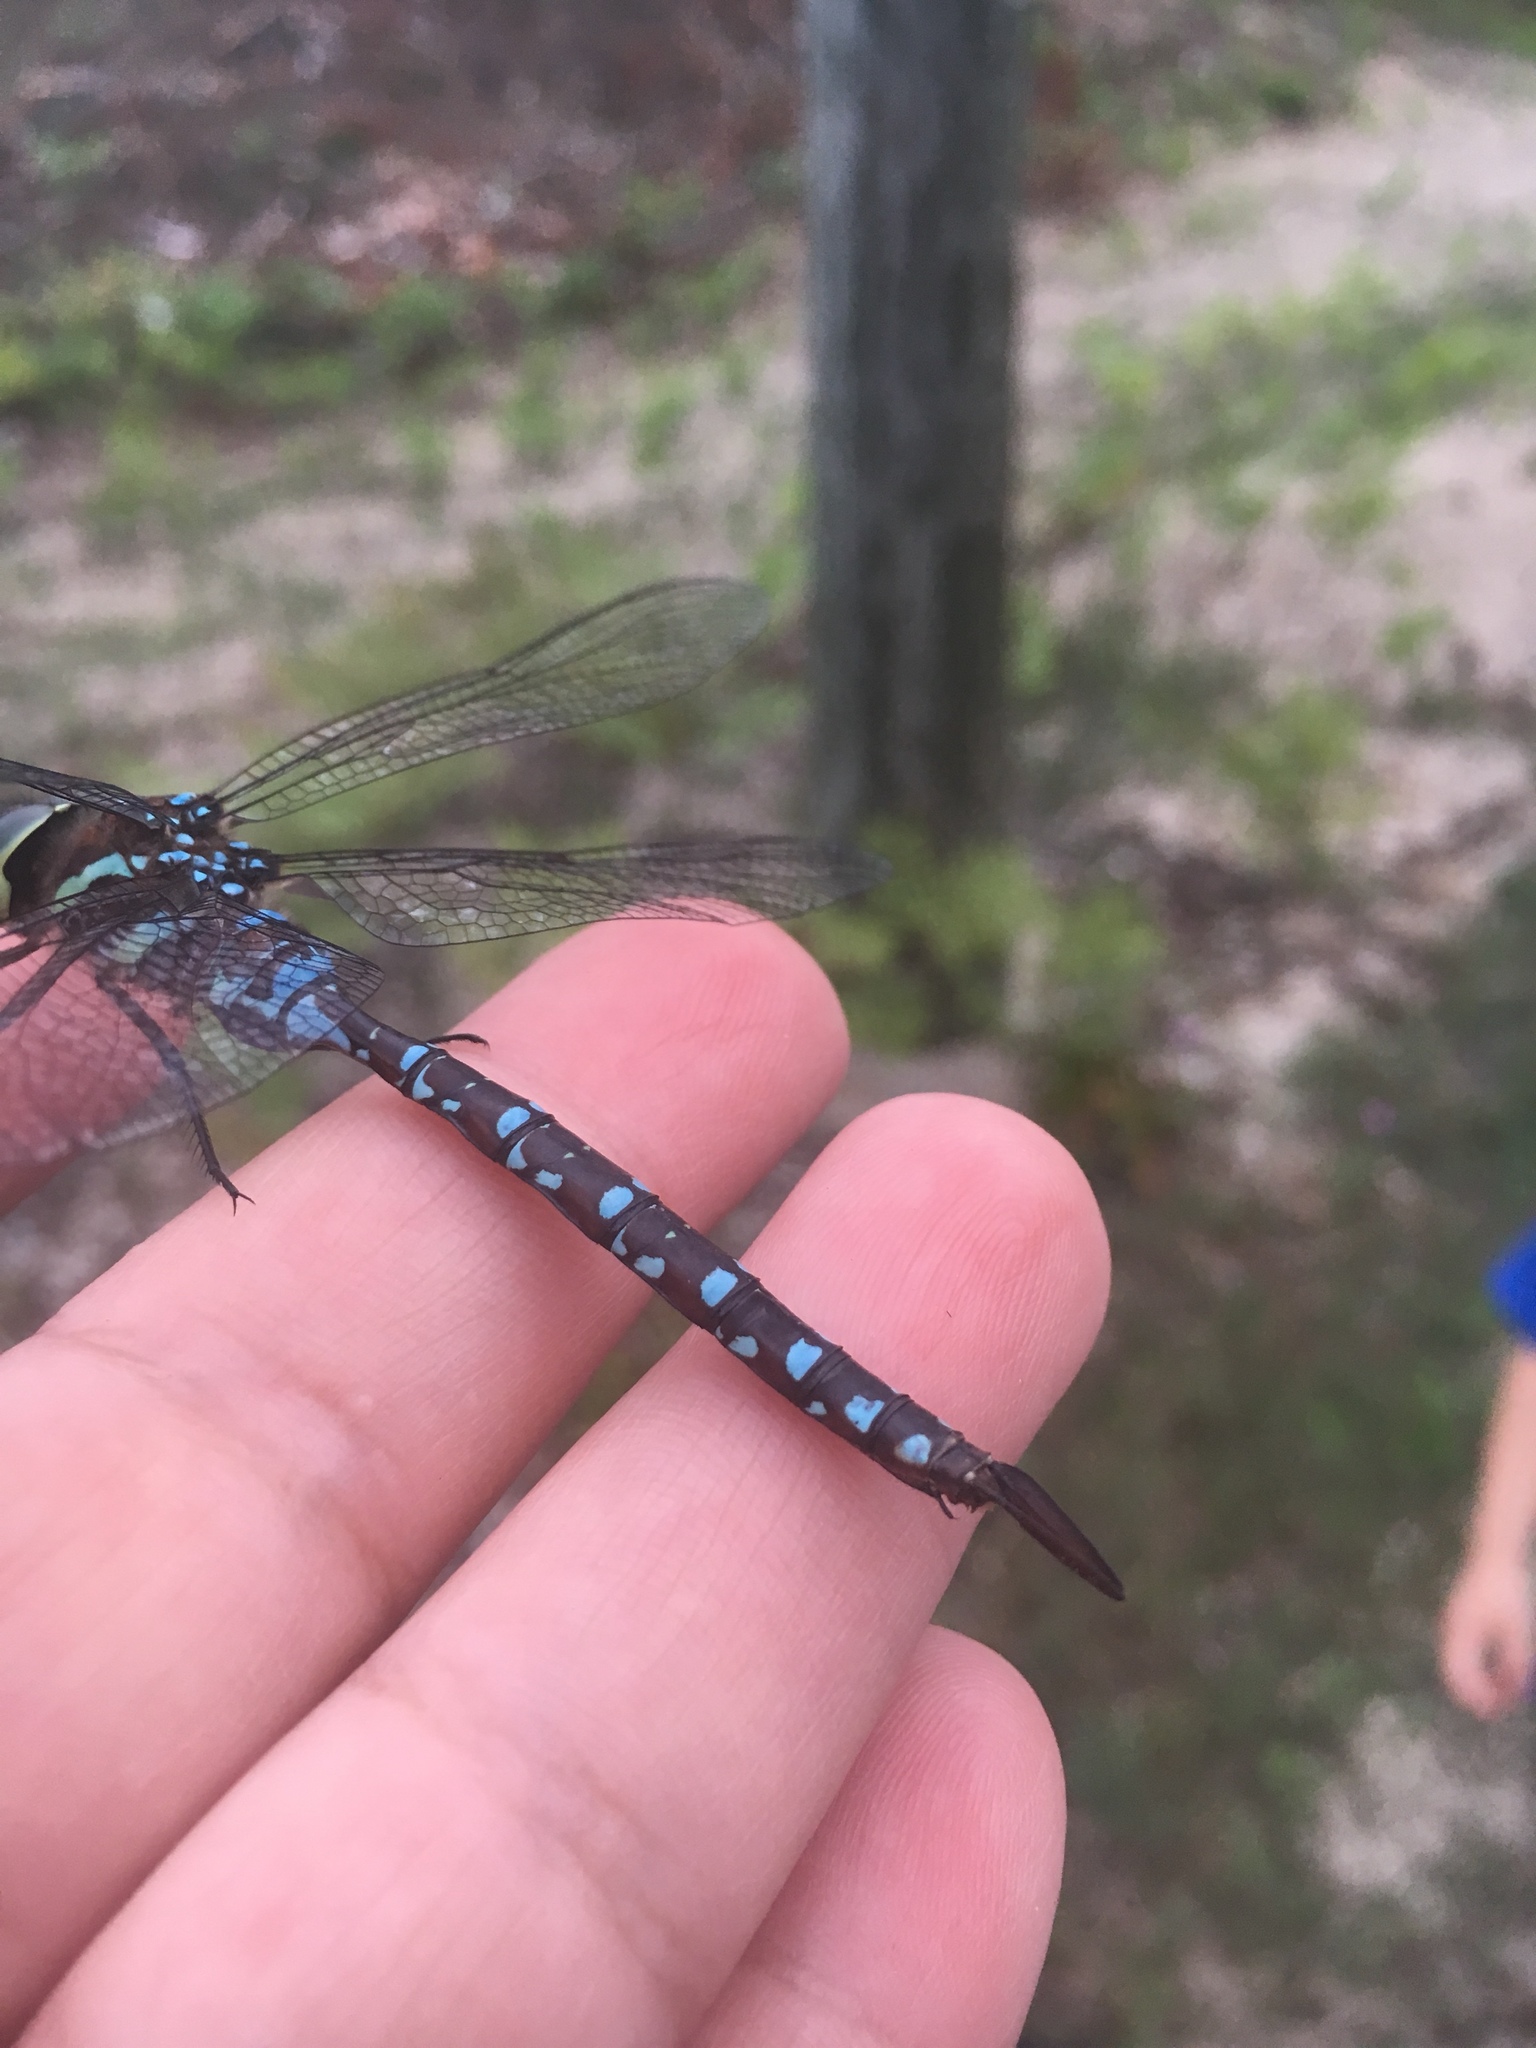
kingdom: Animalia
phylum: Arthropoda
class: Insecta
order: Odonata
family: Aeshnidae
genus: Aeshna
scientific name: Aeshna tuberculifera
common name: Aeschne à tubercules
